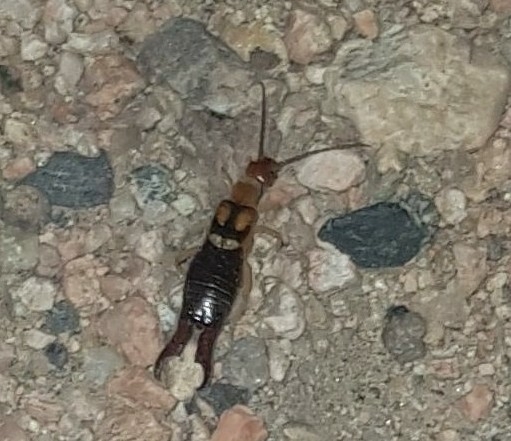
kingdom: Animalia
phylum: Arthropoda
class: Insecta
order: Dermaptera
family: Forficulidae
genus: Forficula
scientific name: Forficula lucasi
